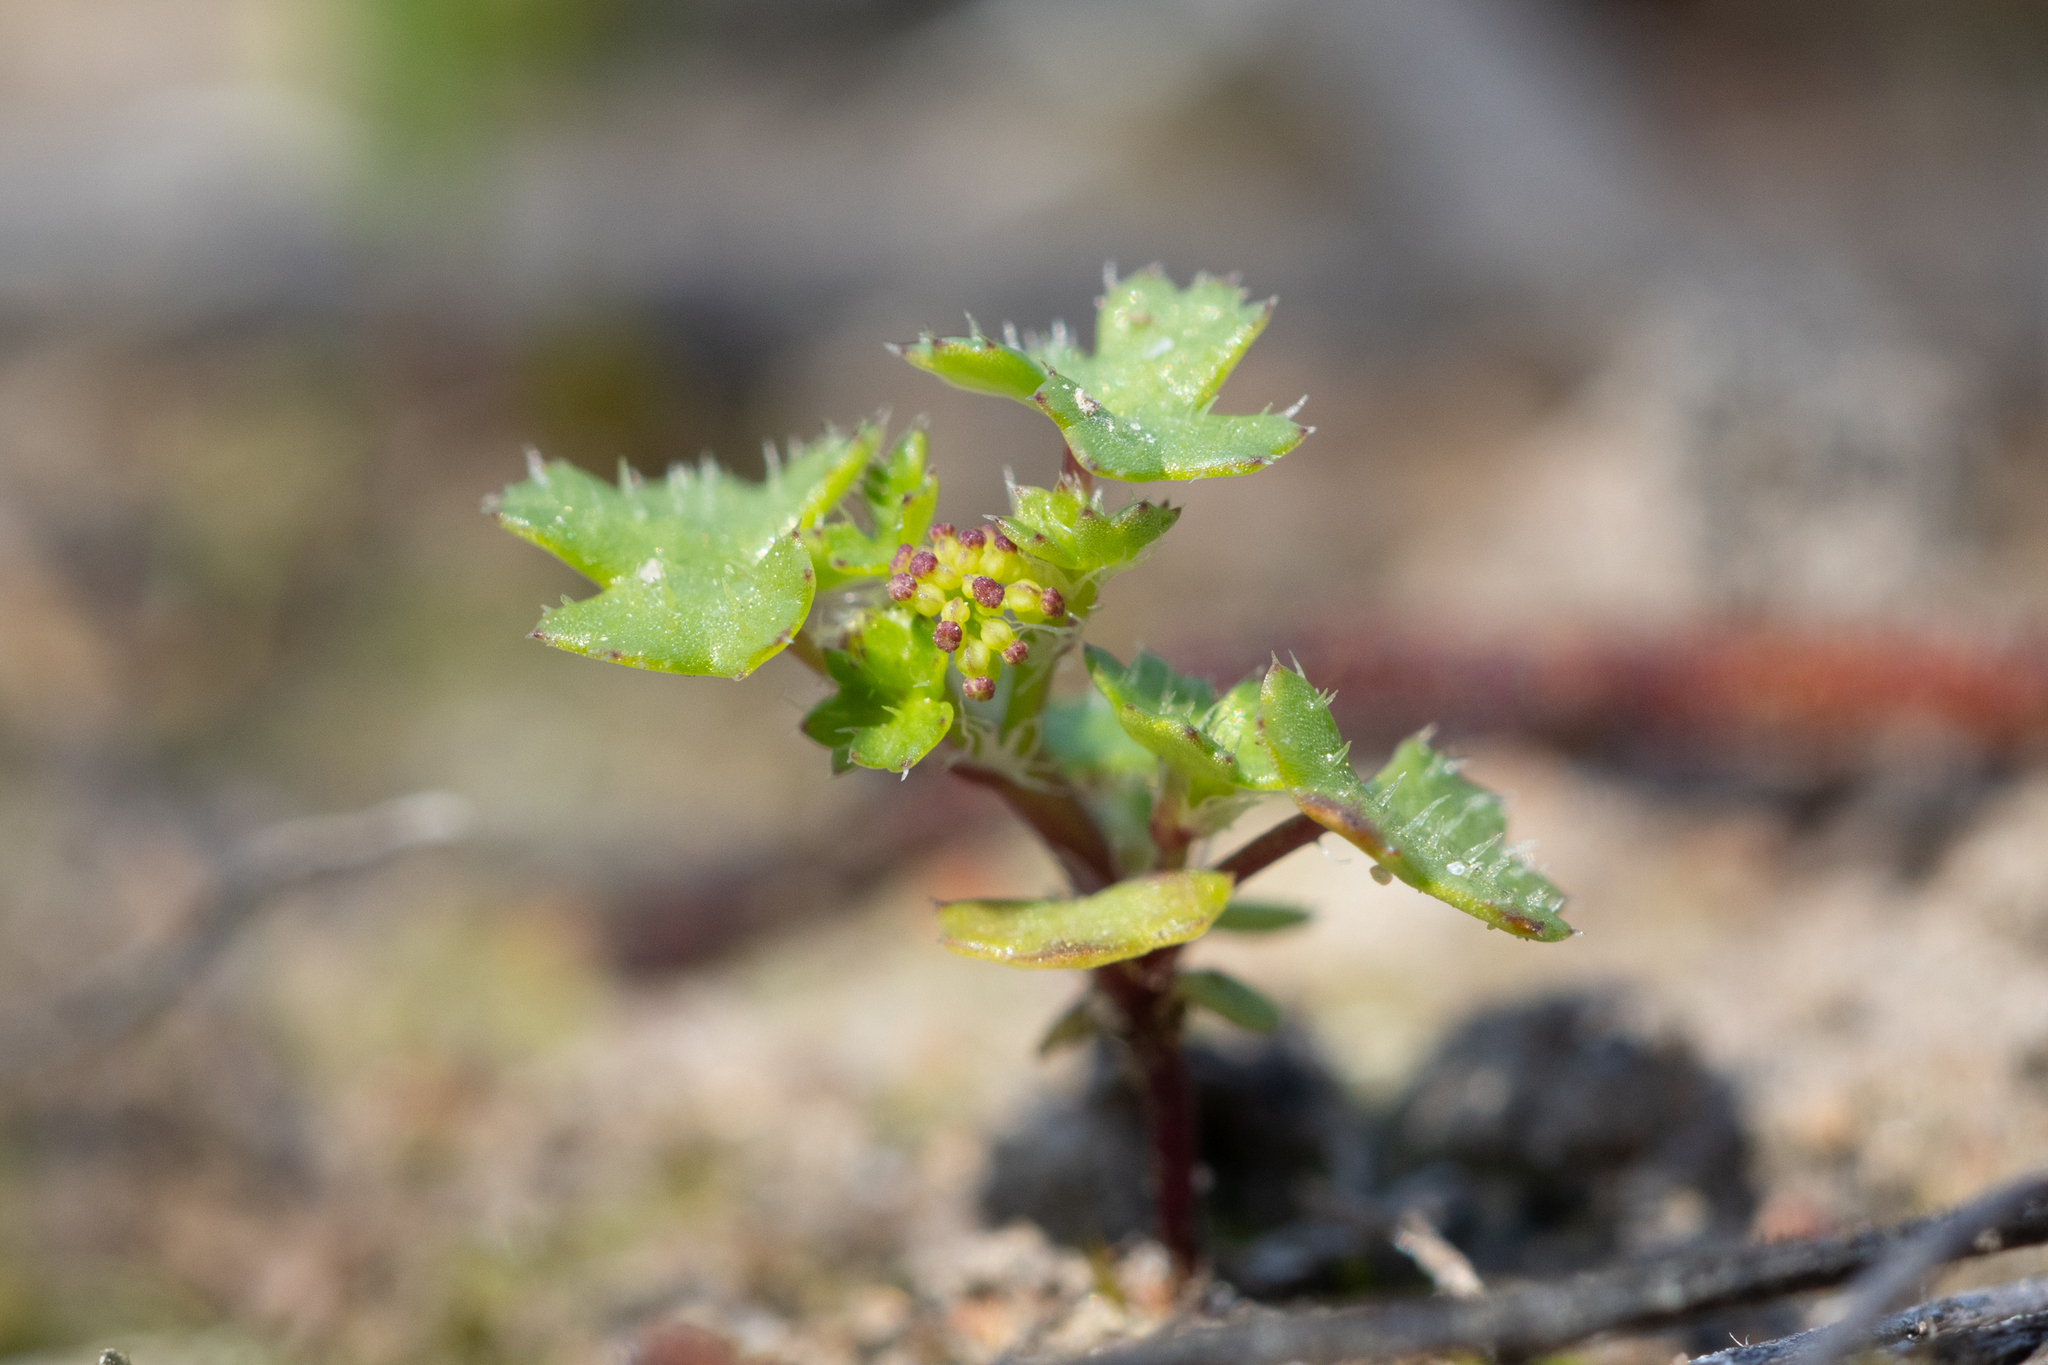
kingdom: Plantae
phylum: Tracheophyta
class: Magnoliopsida
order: Apiales
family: Araliaceae
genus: Hydrocotyle
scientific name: Hydrocotyle callicarpa
